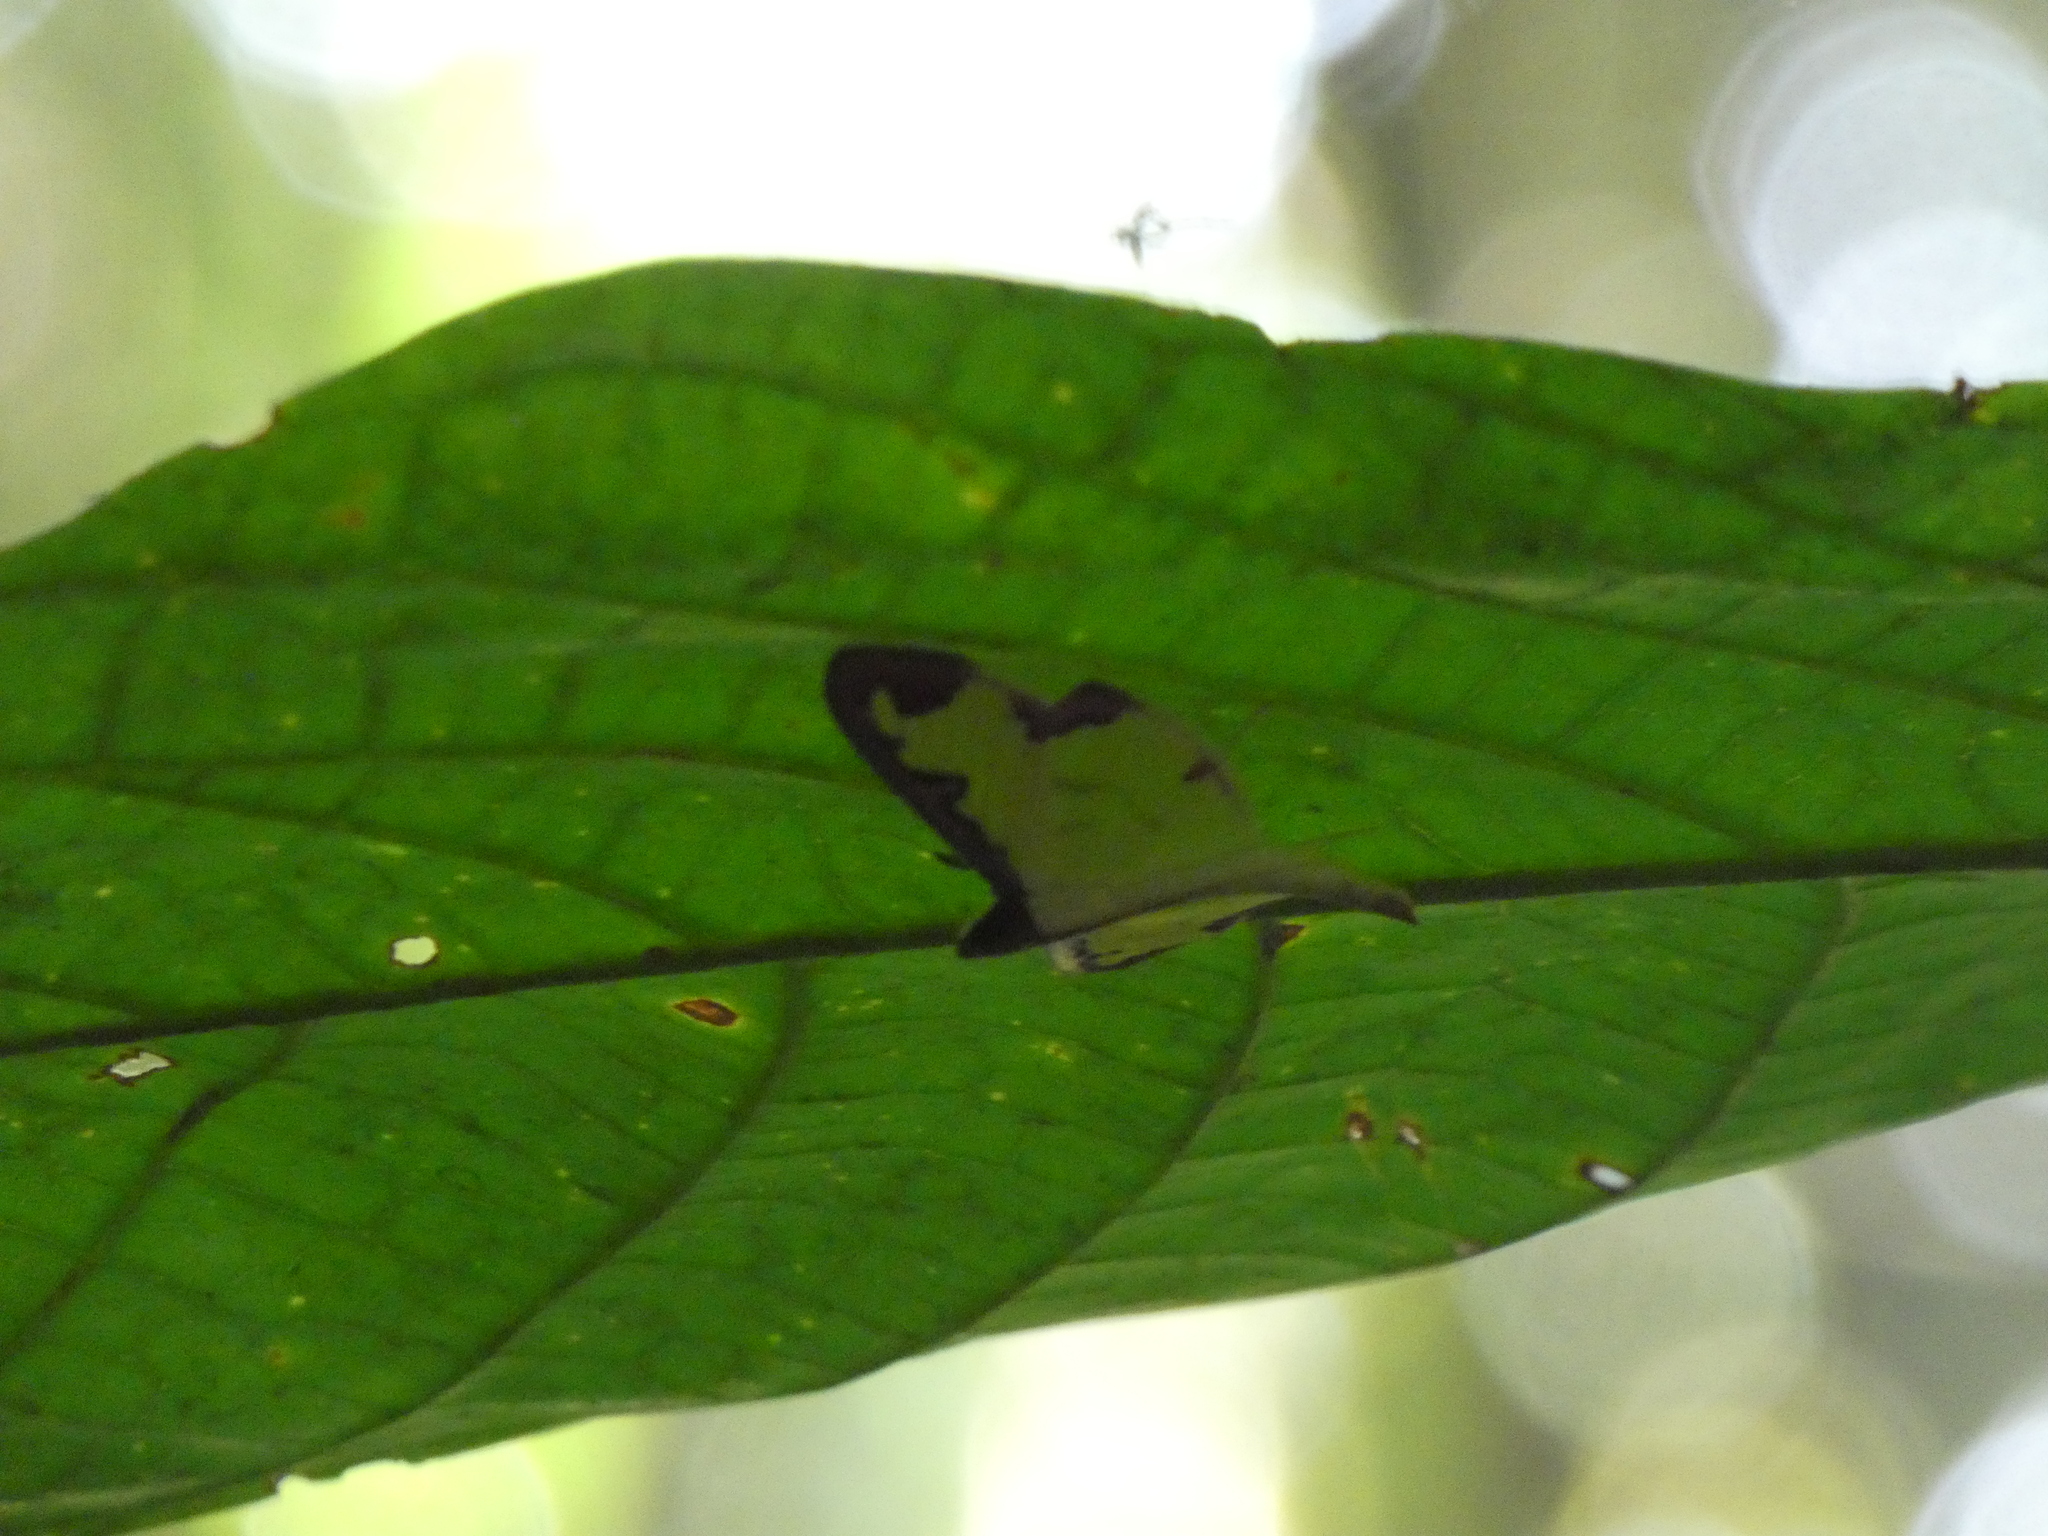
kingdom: Animalia
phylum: Arthropoda
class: Insecta
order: Lepidoptera
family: Crambidae
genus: Cadarena
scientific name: Cadarena pudoraria
